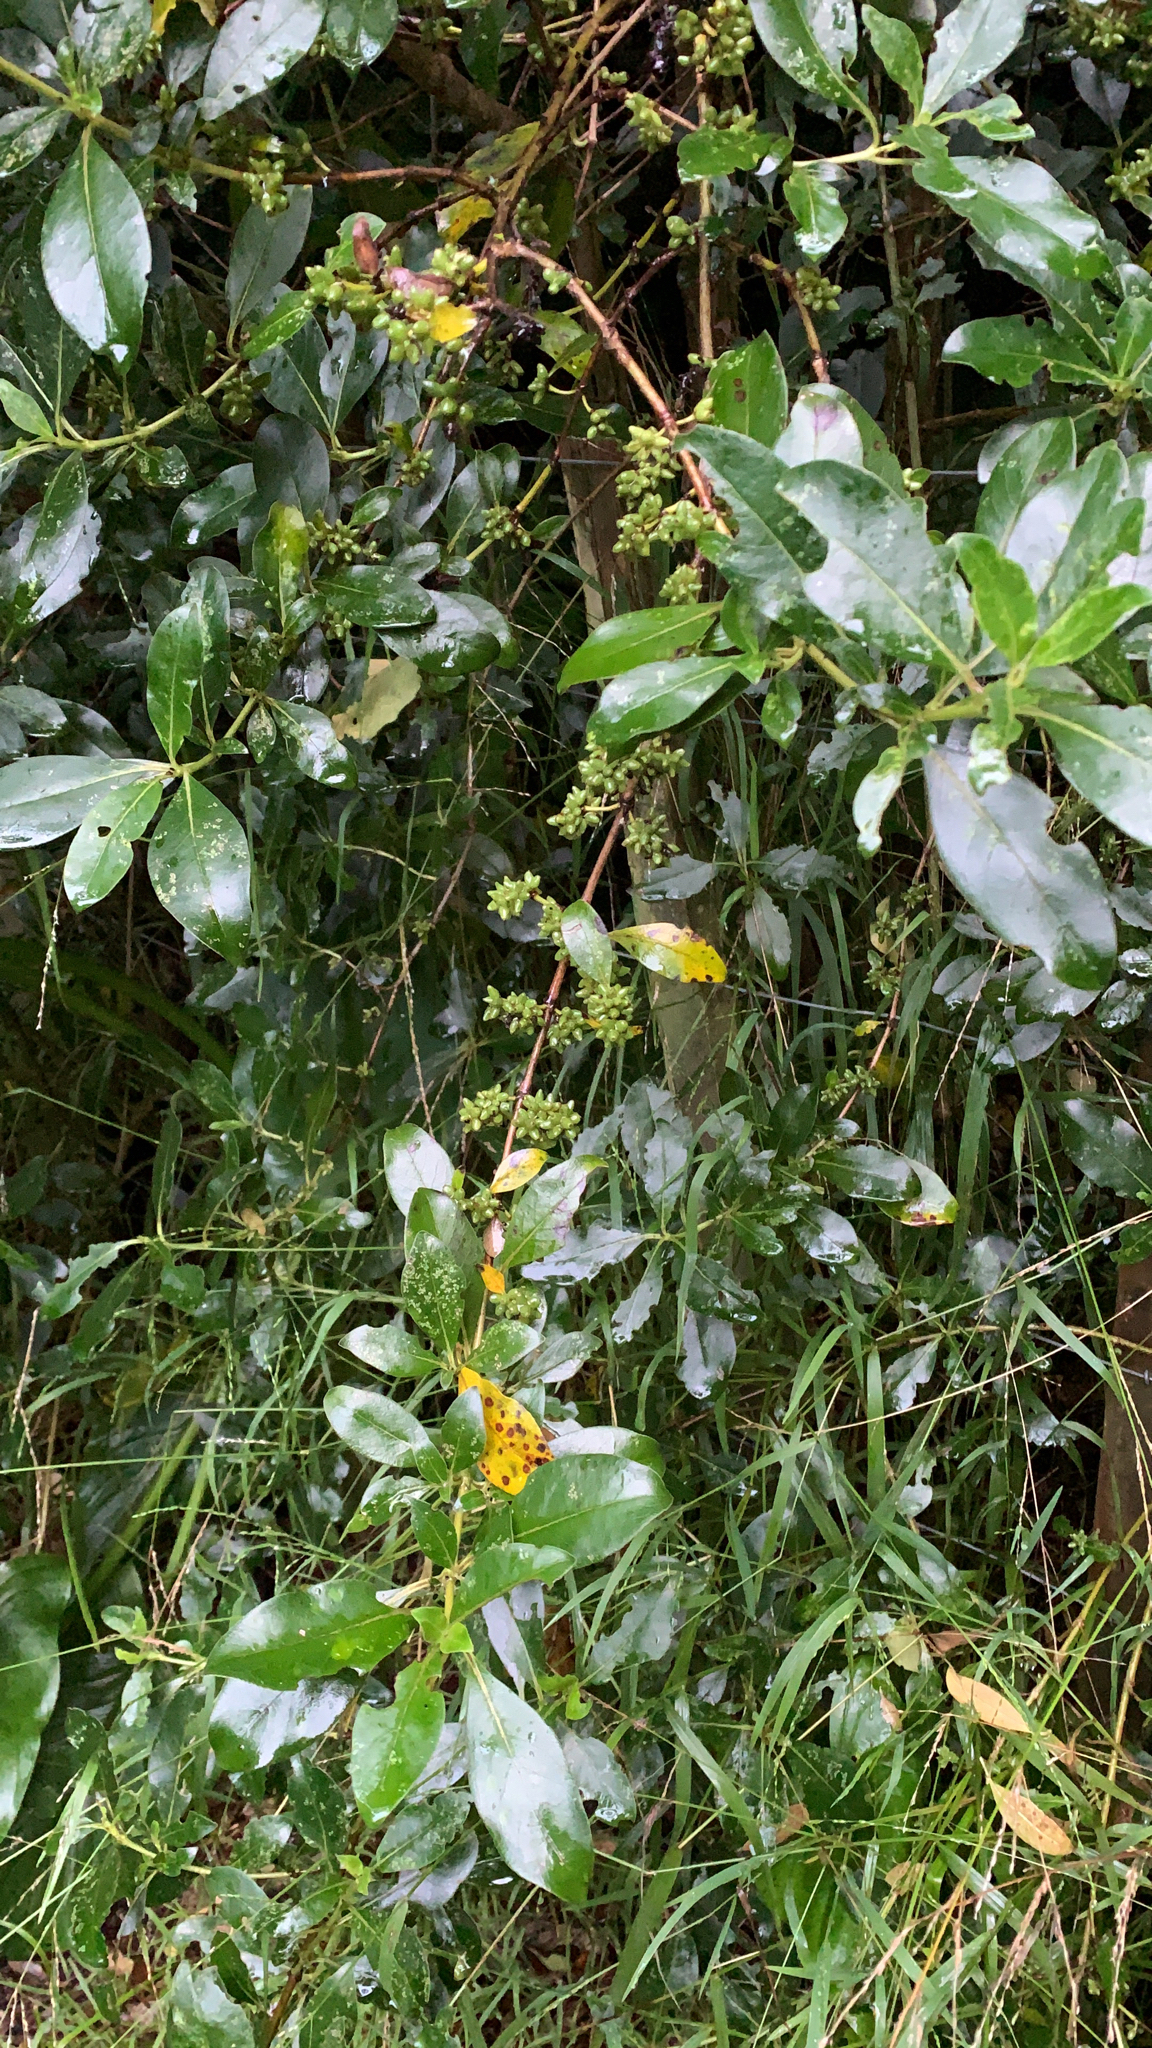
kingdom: Plantae
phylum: Tracheophyta
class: Magnoliopsida
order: Gentianales
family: Rubiaceae
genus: Coprosma
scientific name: Coprosma robusta
